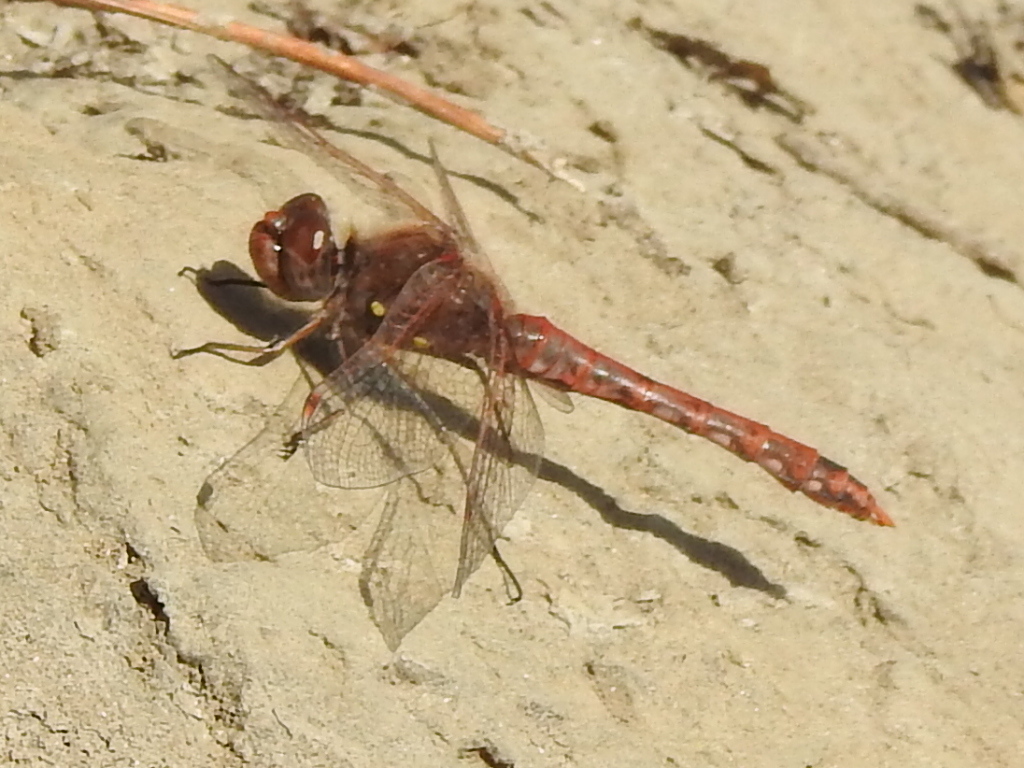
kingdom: Animalia
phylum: Arthropoda
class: Insecta
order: Odonata
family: Libellulidae
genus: Sympetrum
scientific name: Sympetrum corruptum
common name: Variegated meadowhawk
